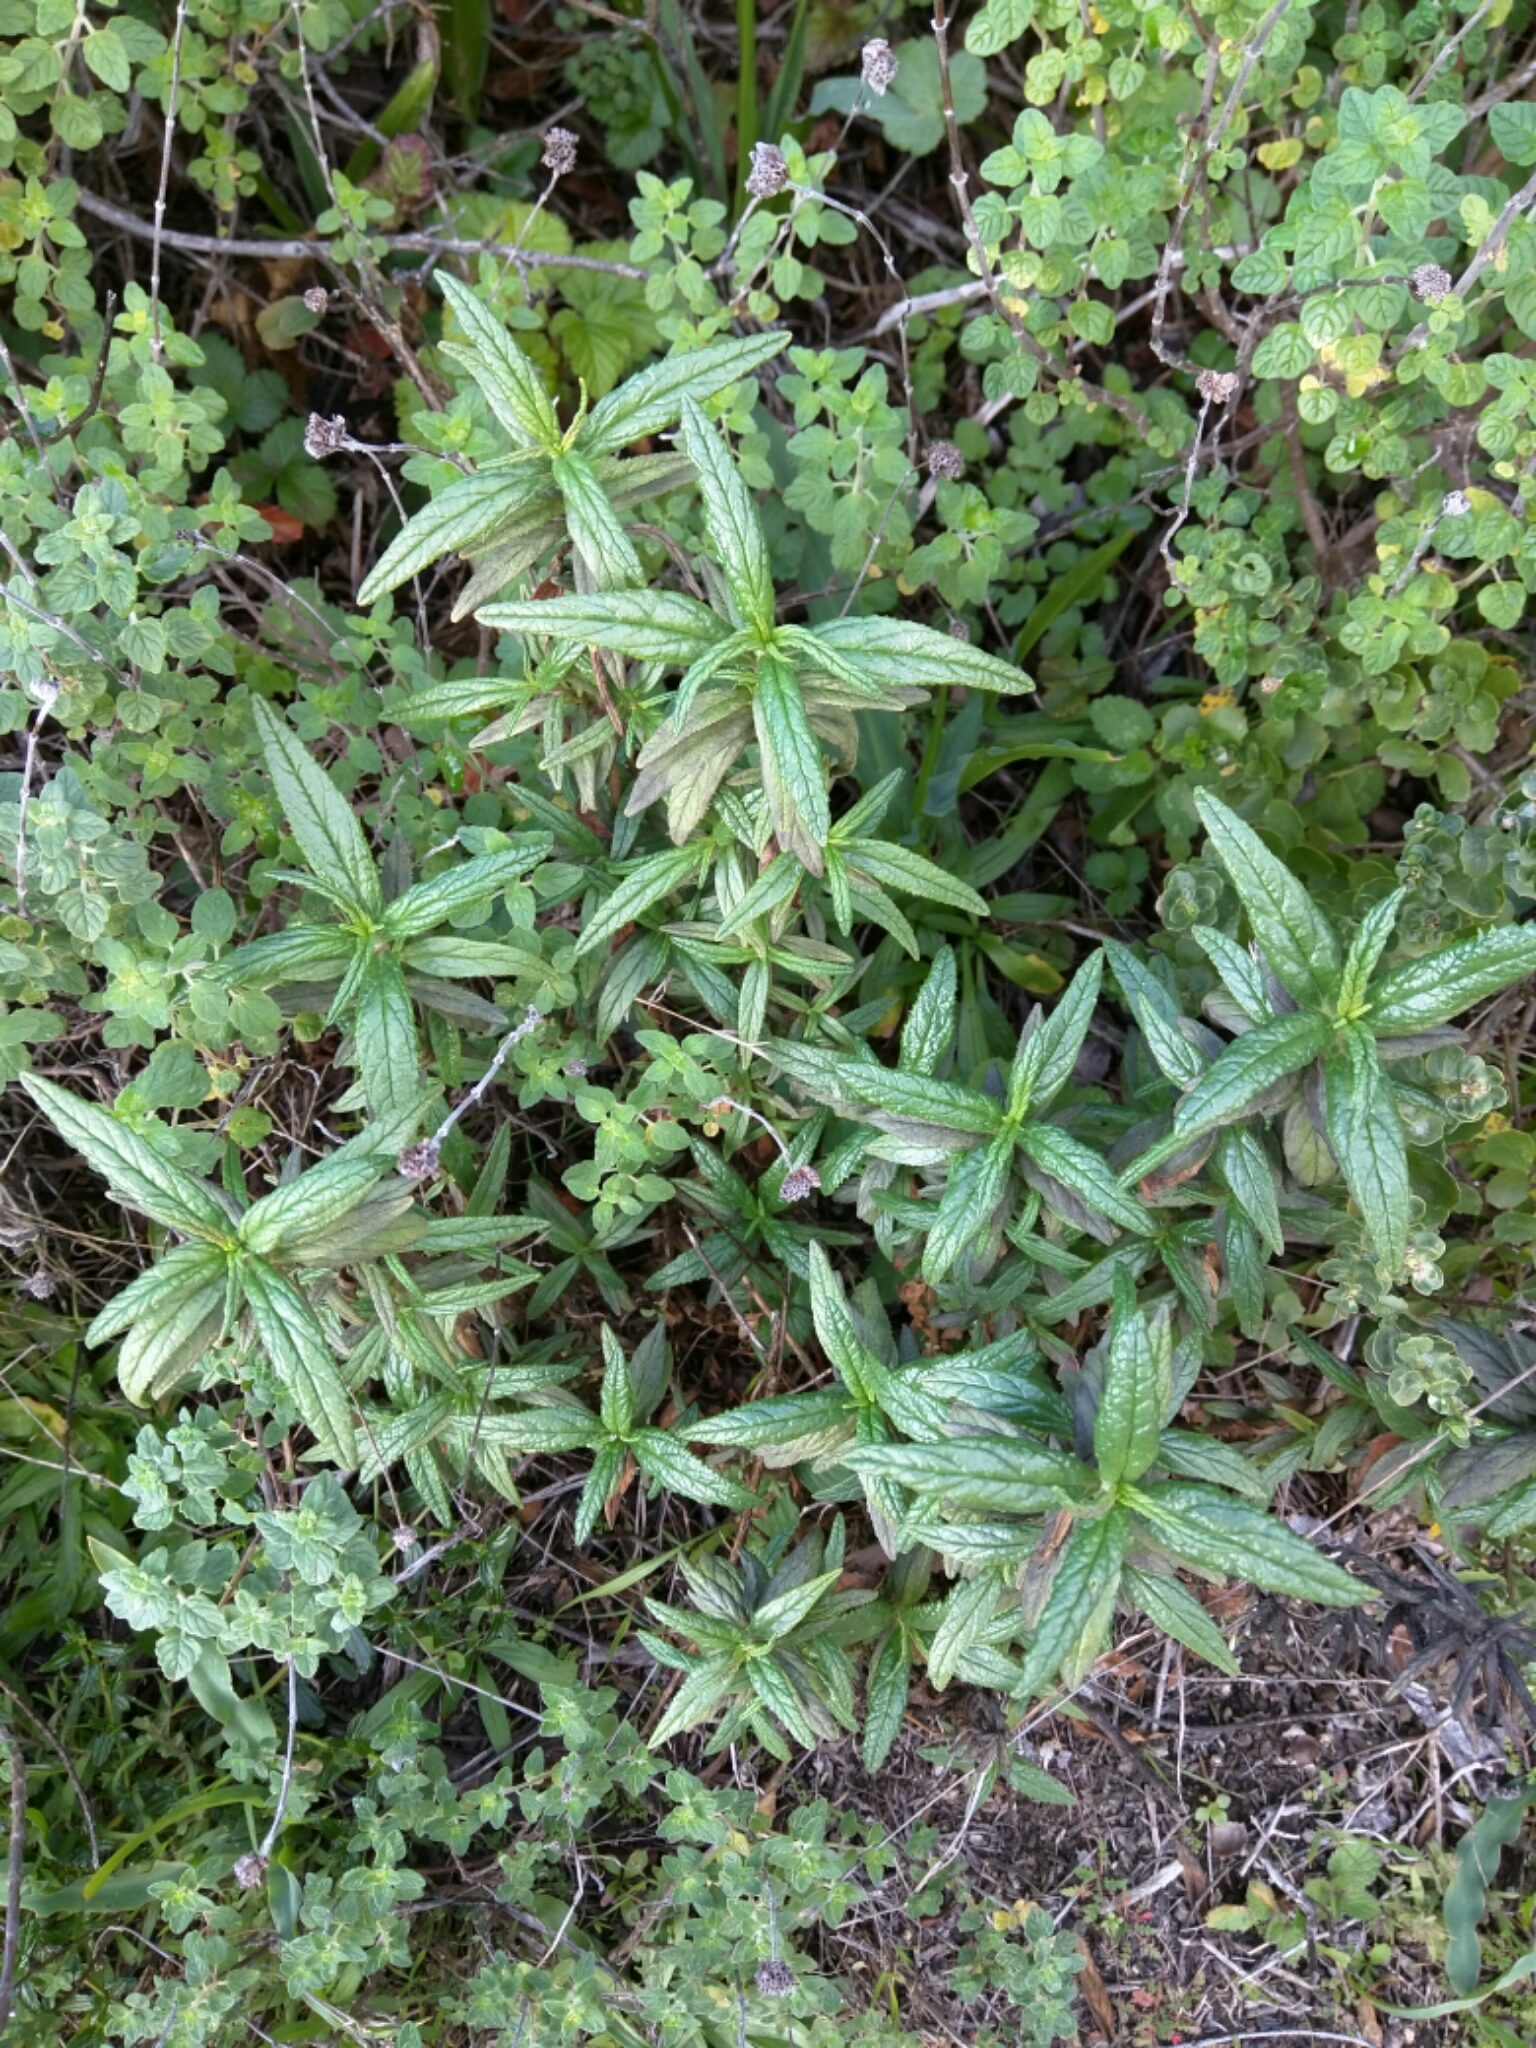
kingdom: Plantae
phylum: Tracheophyta
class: Magnoliopsida
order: Lamiales
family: Phrymaceae
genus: Diplacus
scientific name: Diplacus aurantiacus
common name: Bush monkey-flower
